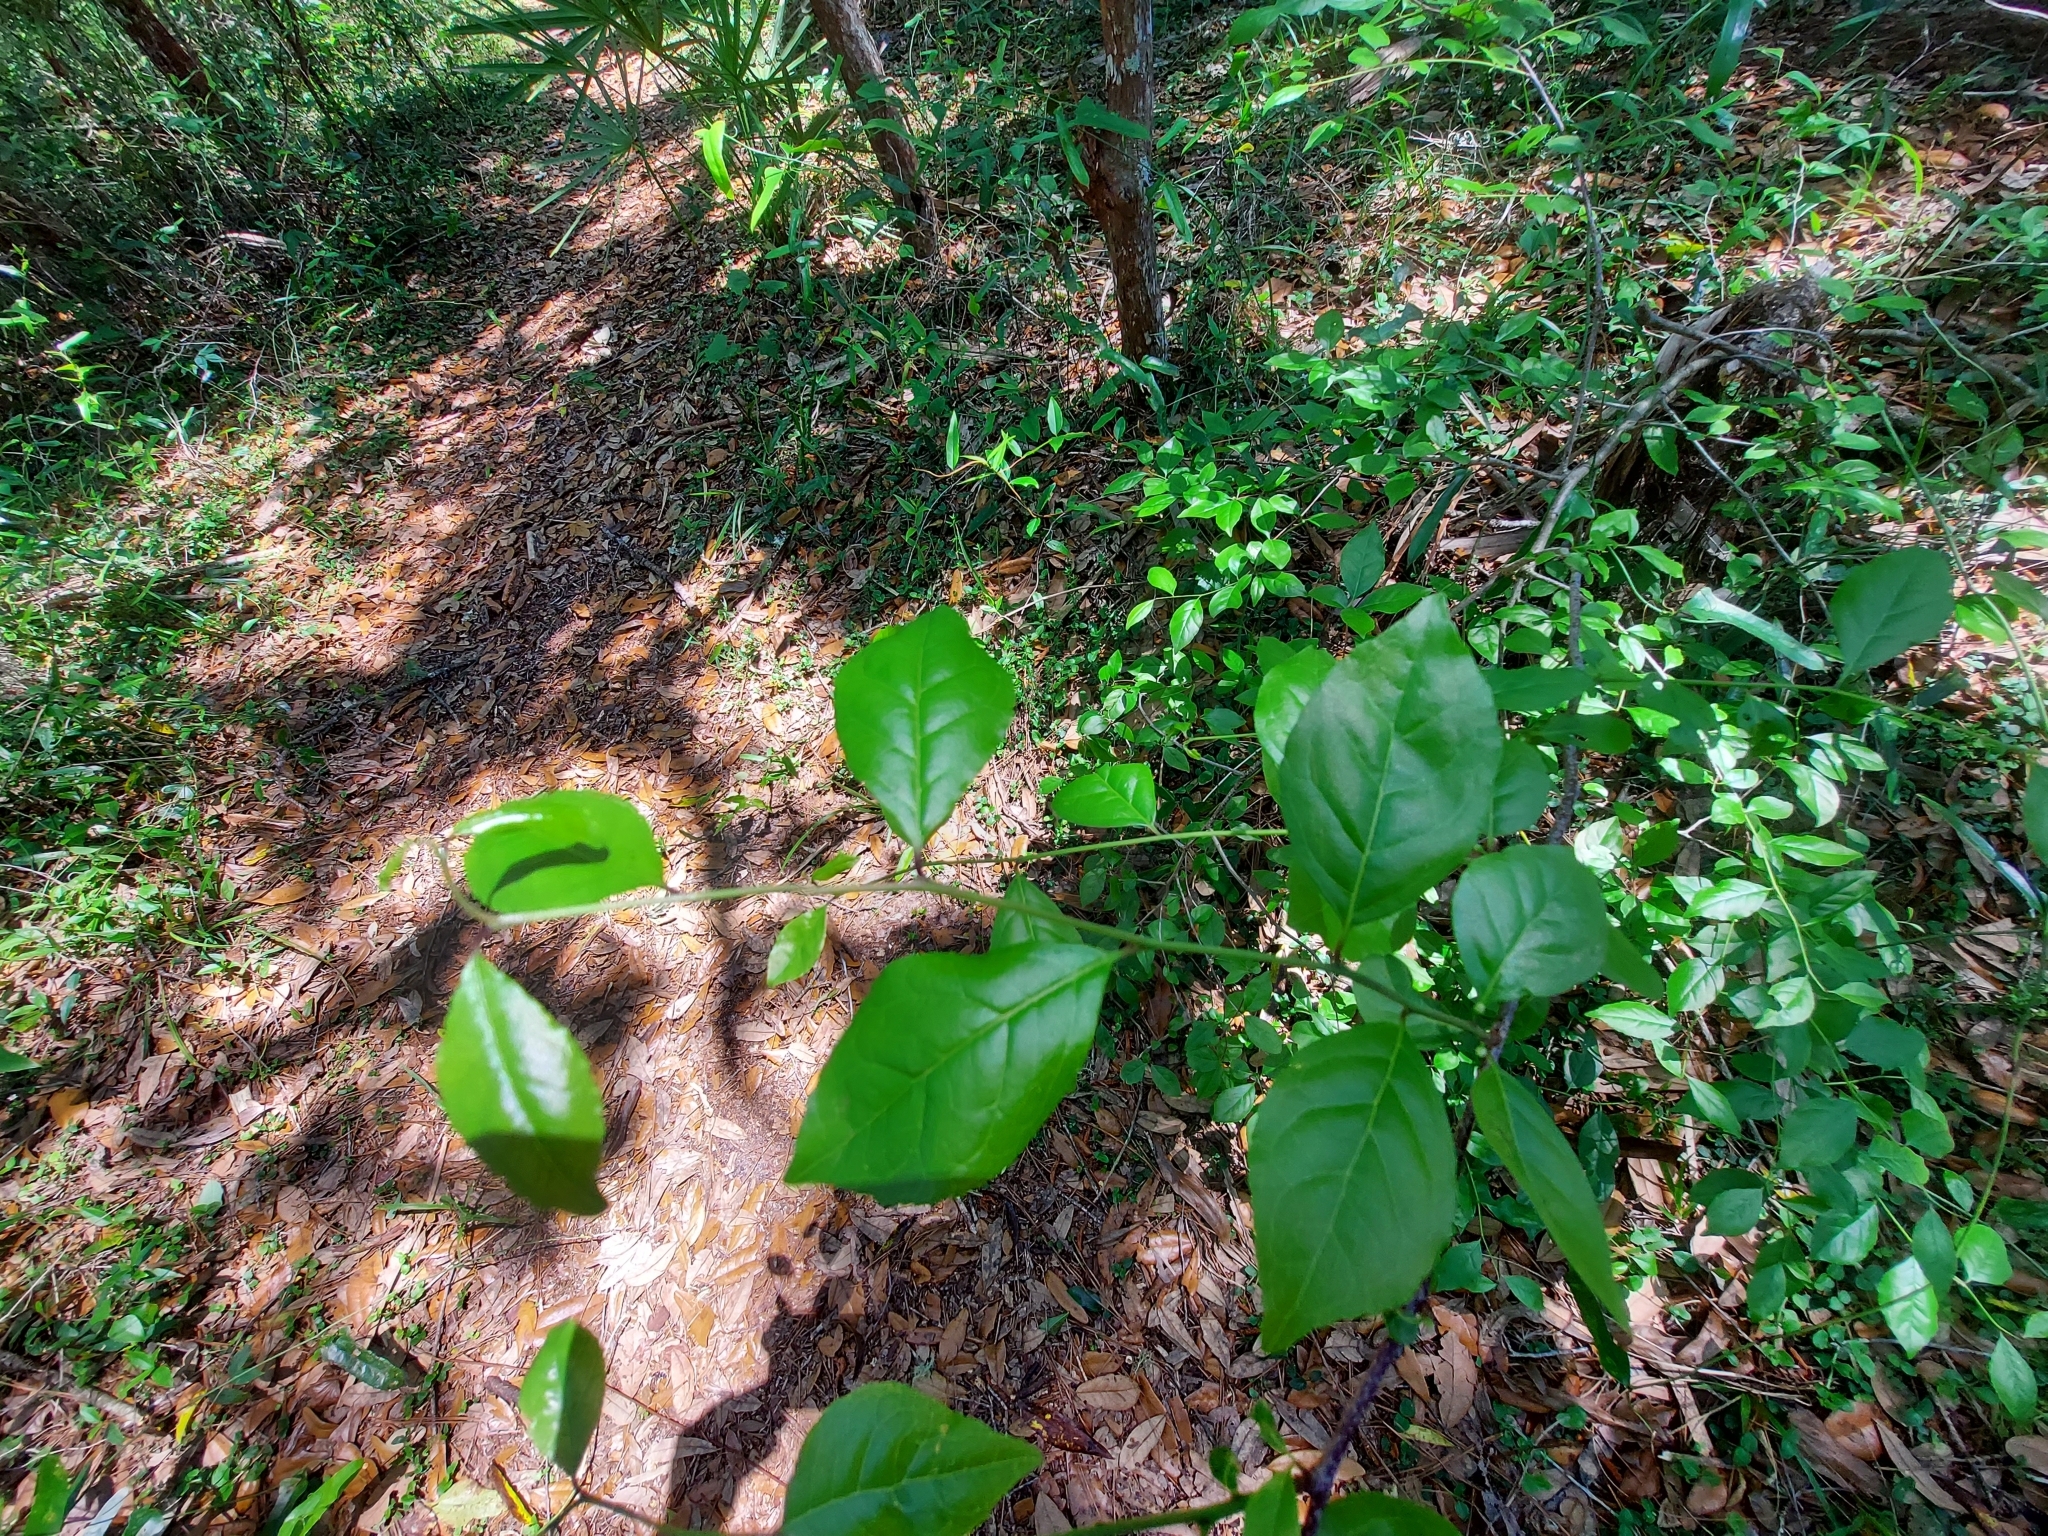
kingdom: Plantae
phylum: Tracheophyta
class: Magnoliopsida
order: Aquifoliales
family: Aquifoliaceae
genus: Ilex
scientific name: Ilex ambigua
